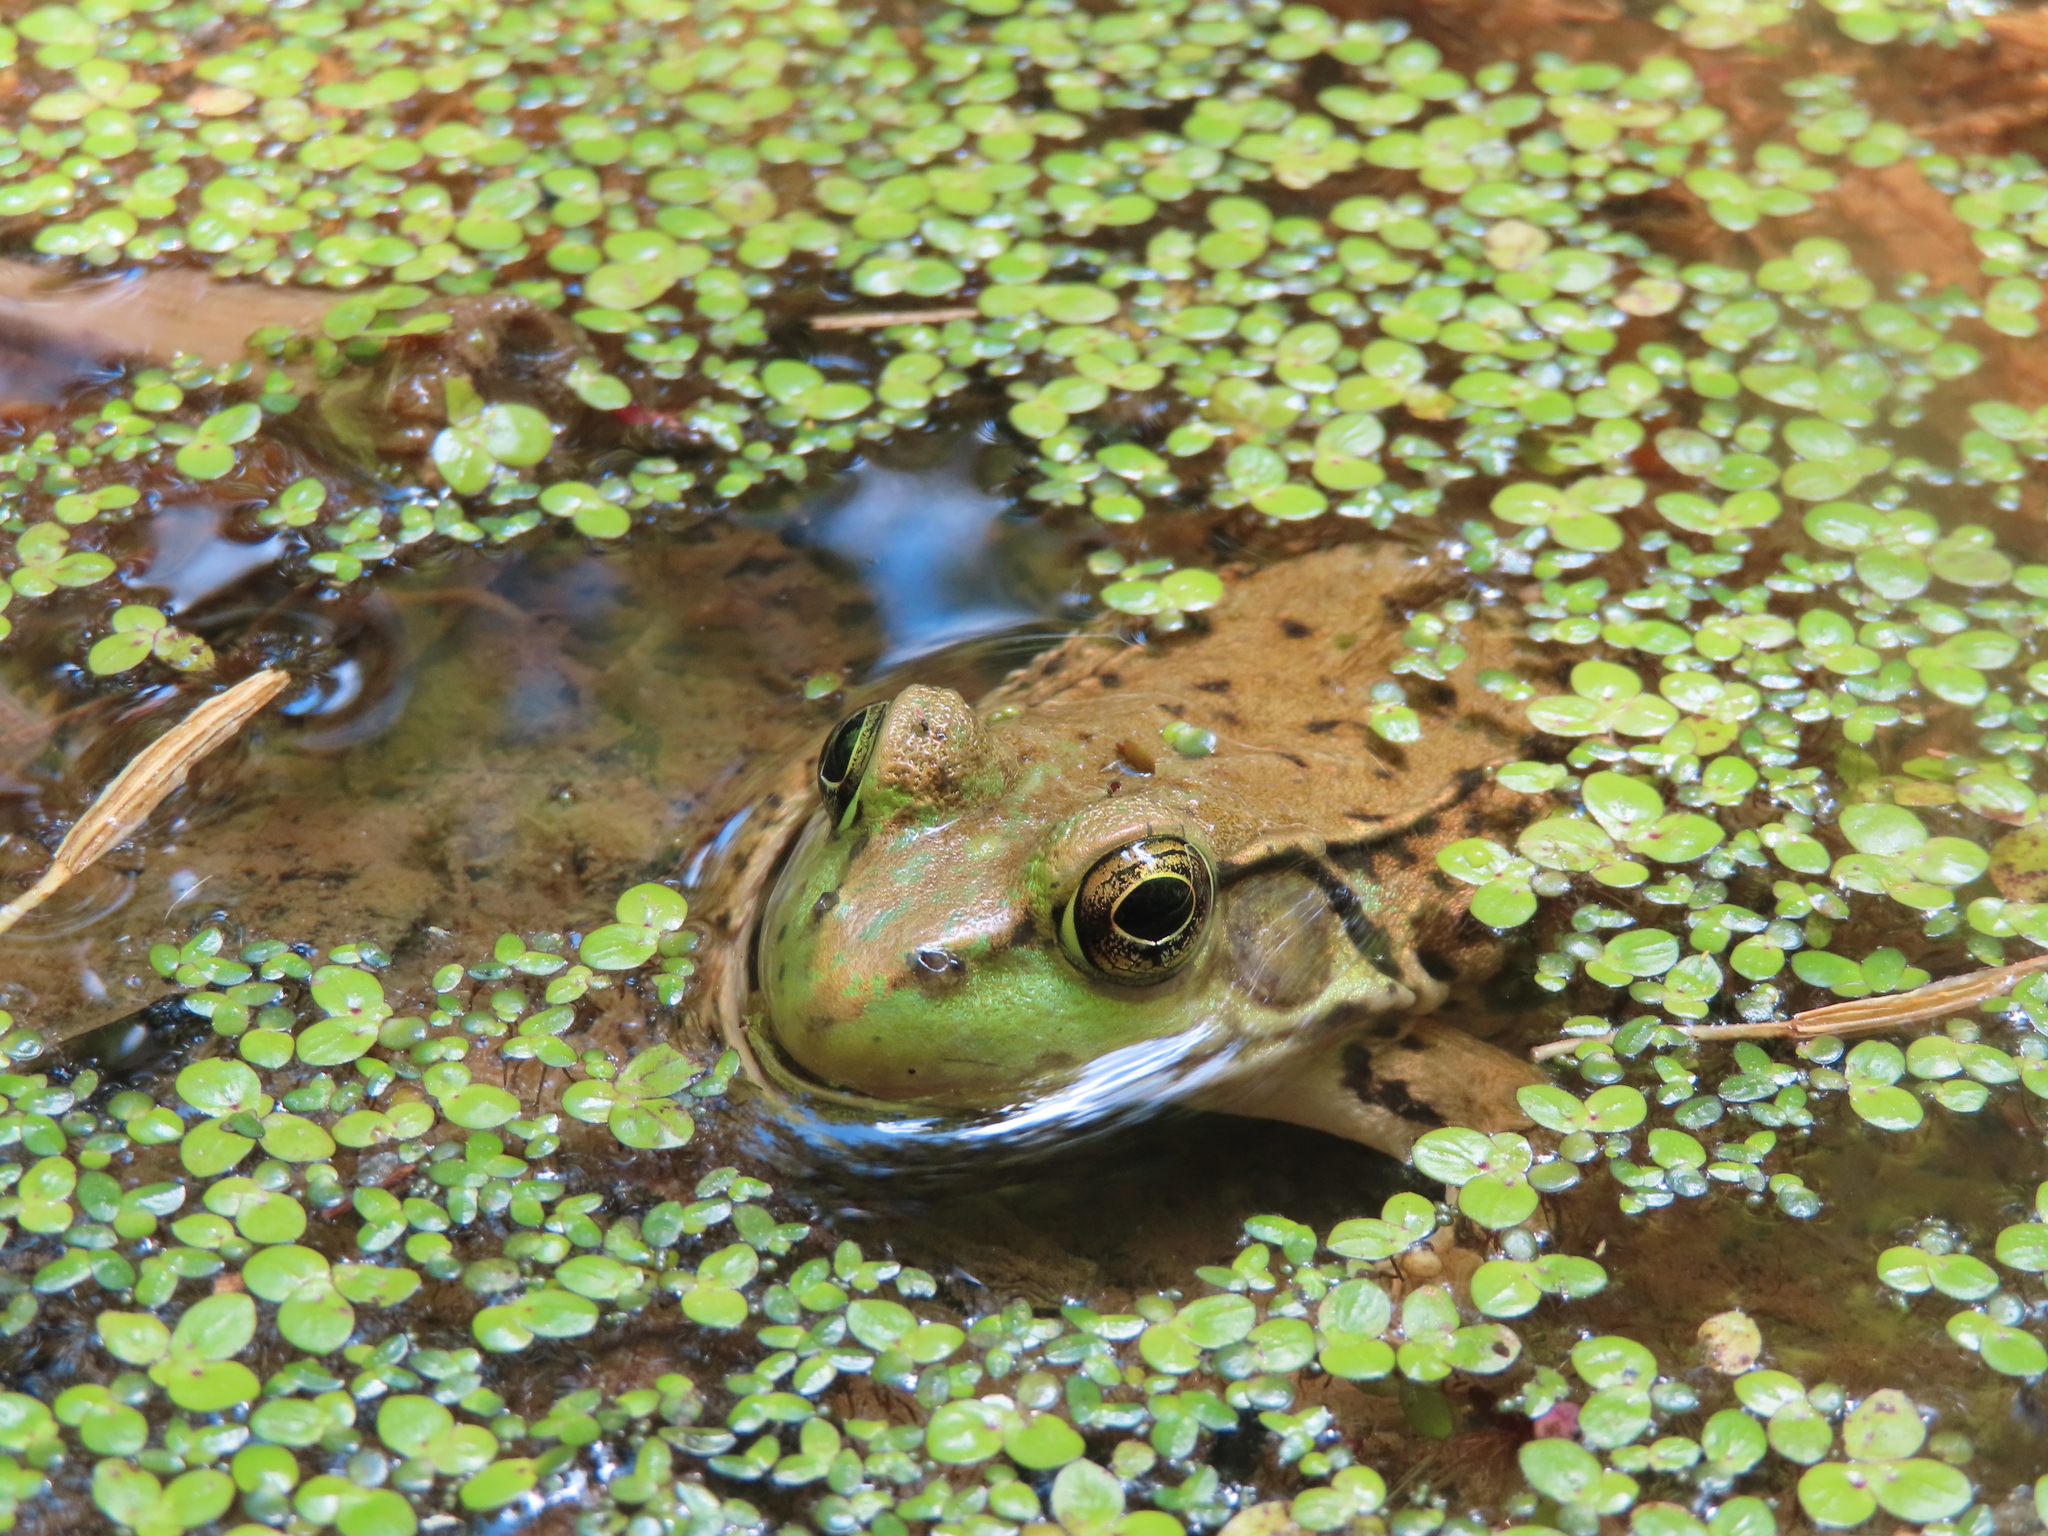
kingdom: Animalia
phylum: Chordata
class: Amphibia
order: Anura
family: Ranidae
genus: Lithobates
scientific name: Lithobates clamitans
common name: Green frog
